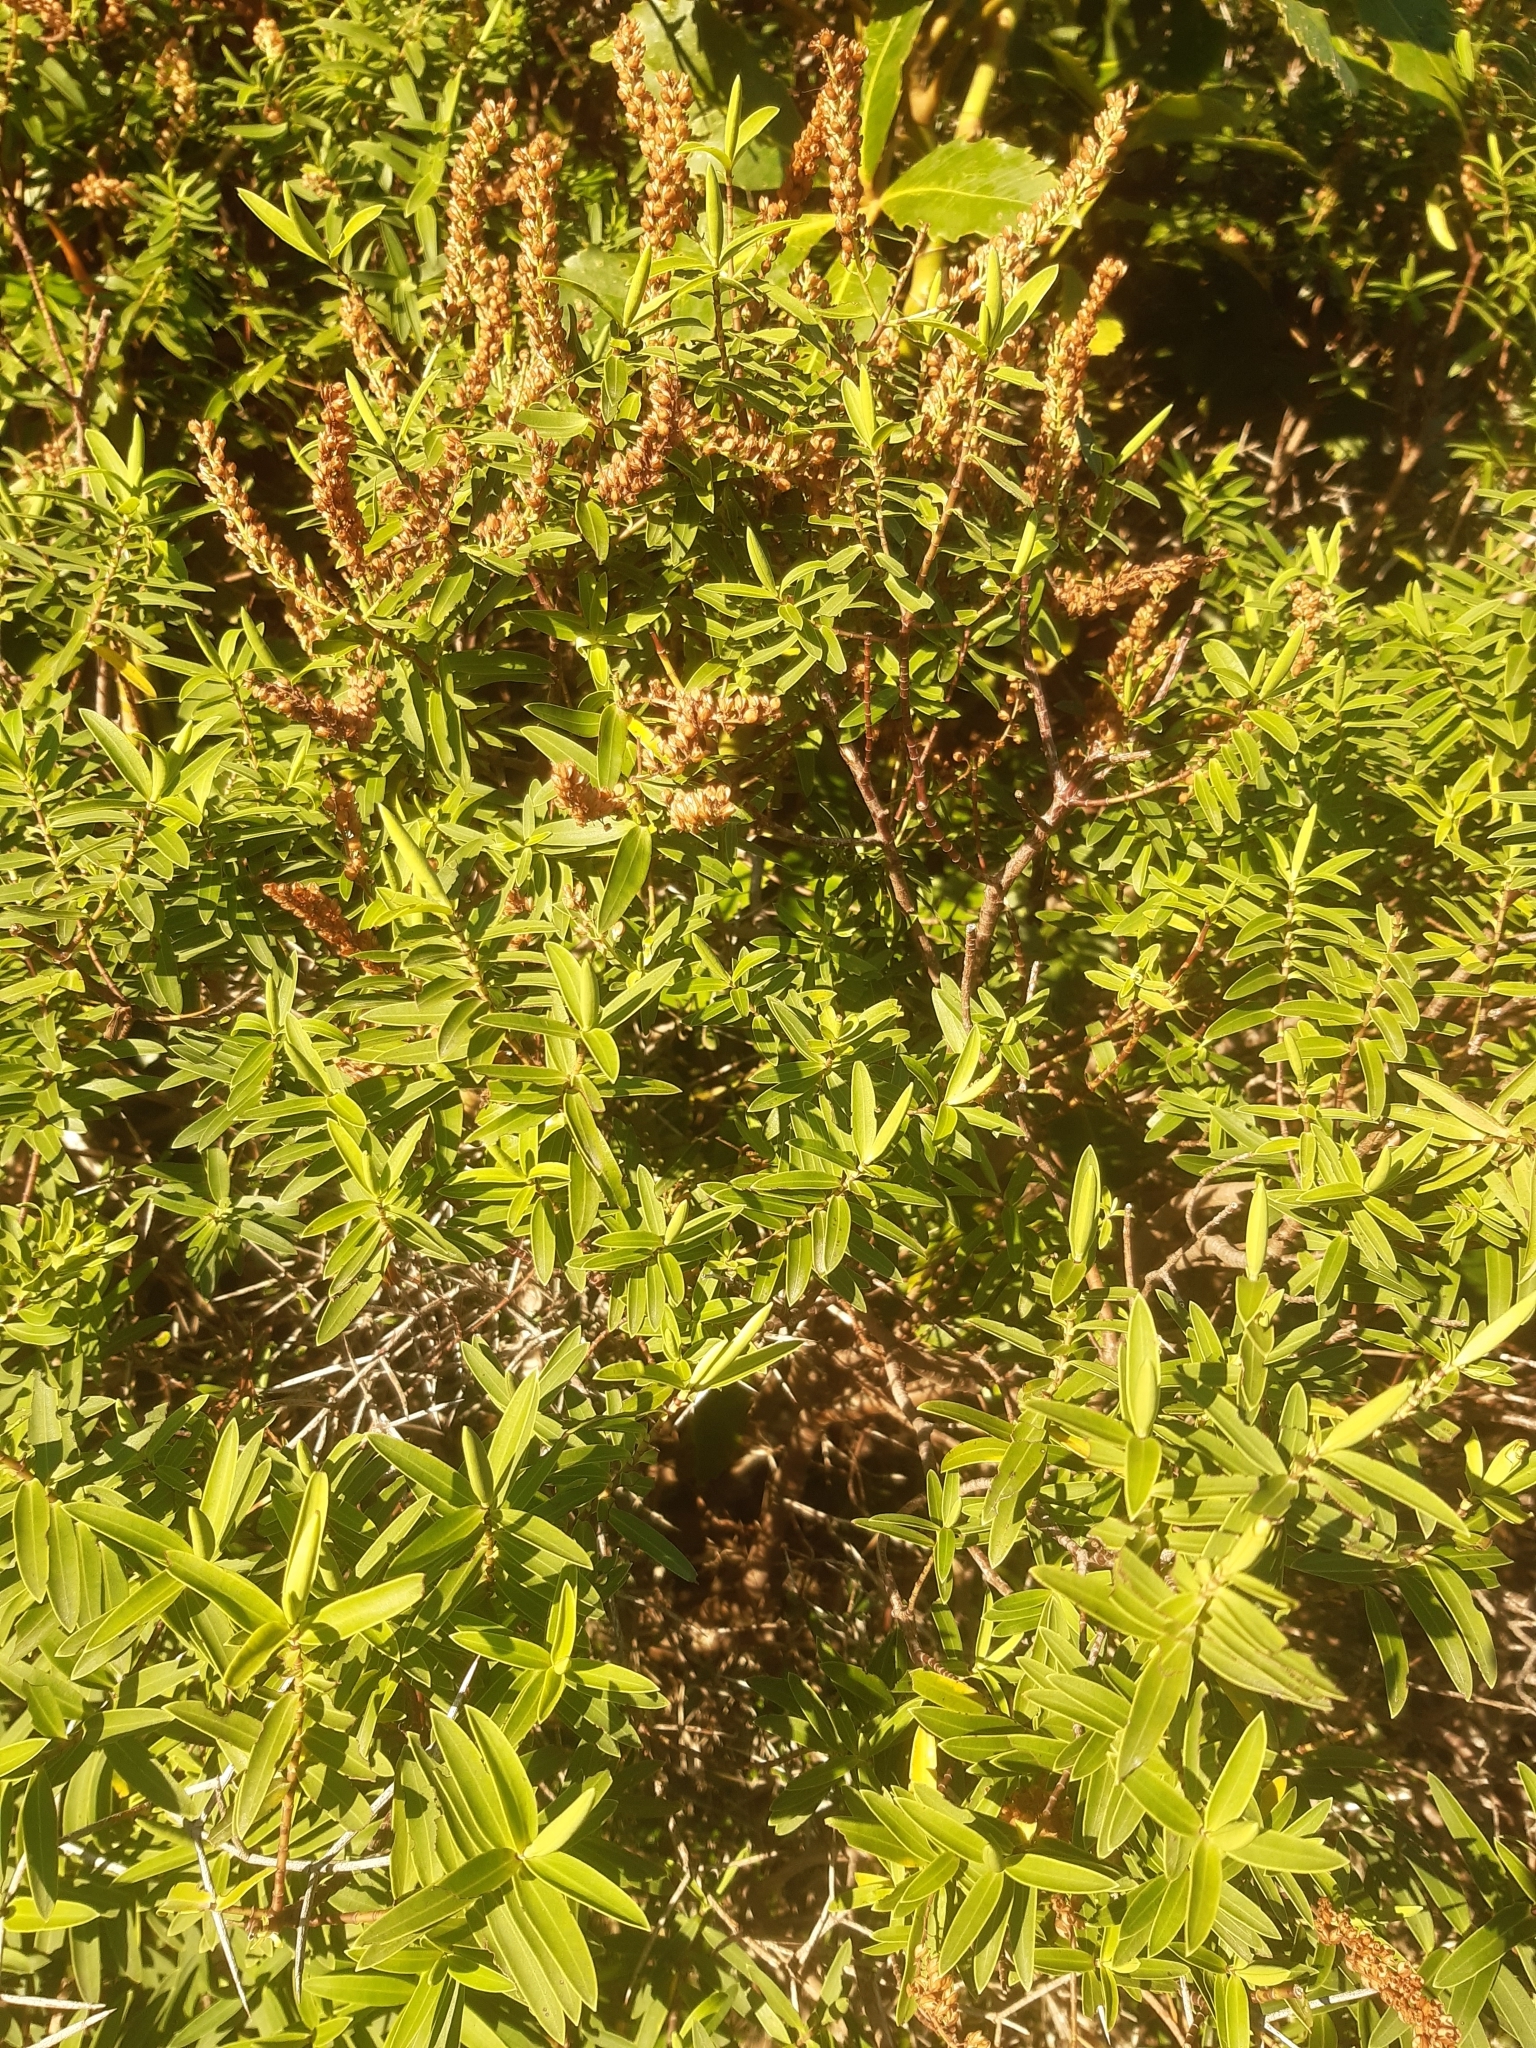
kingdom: Plantae
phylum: Tracheophyta
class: Magnoliopsida
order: Lamiales
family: Plantaginaceae
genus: Veronica
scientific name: Veronica strictissima
